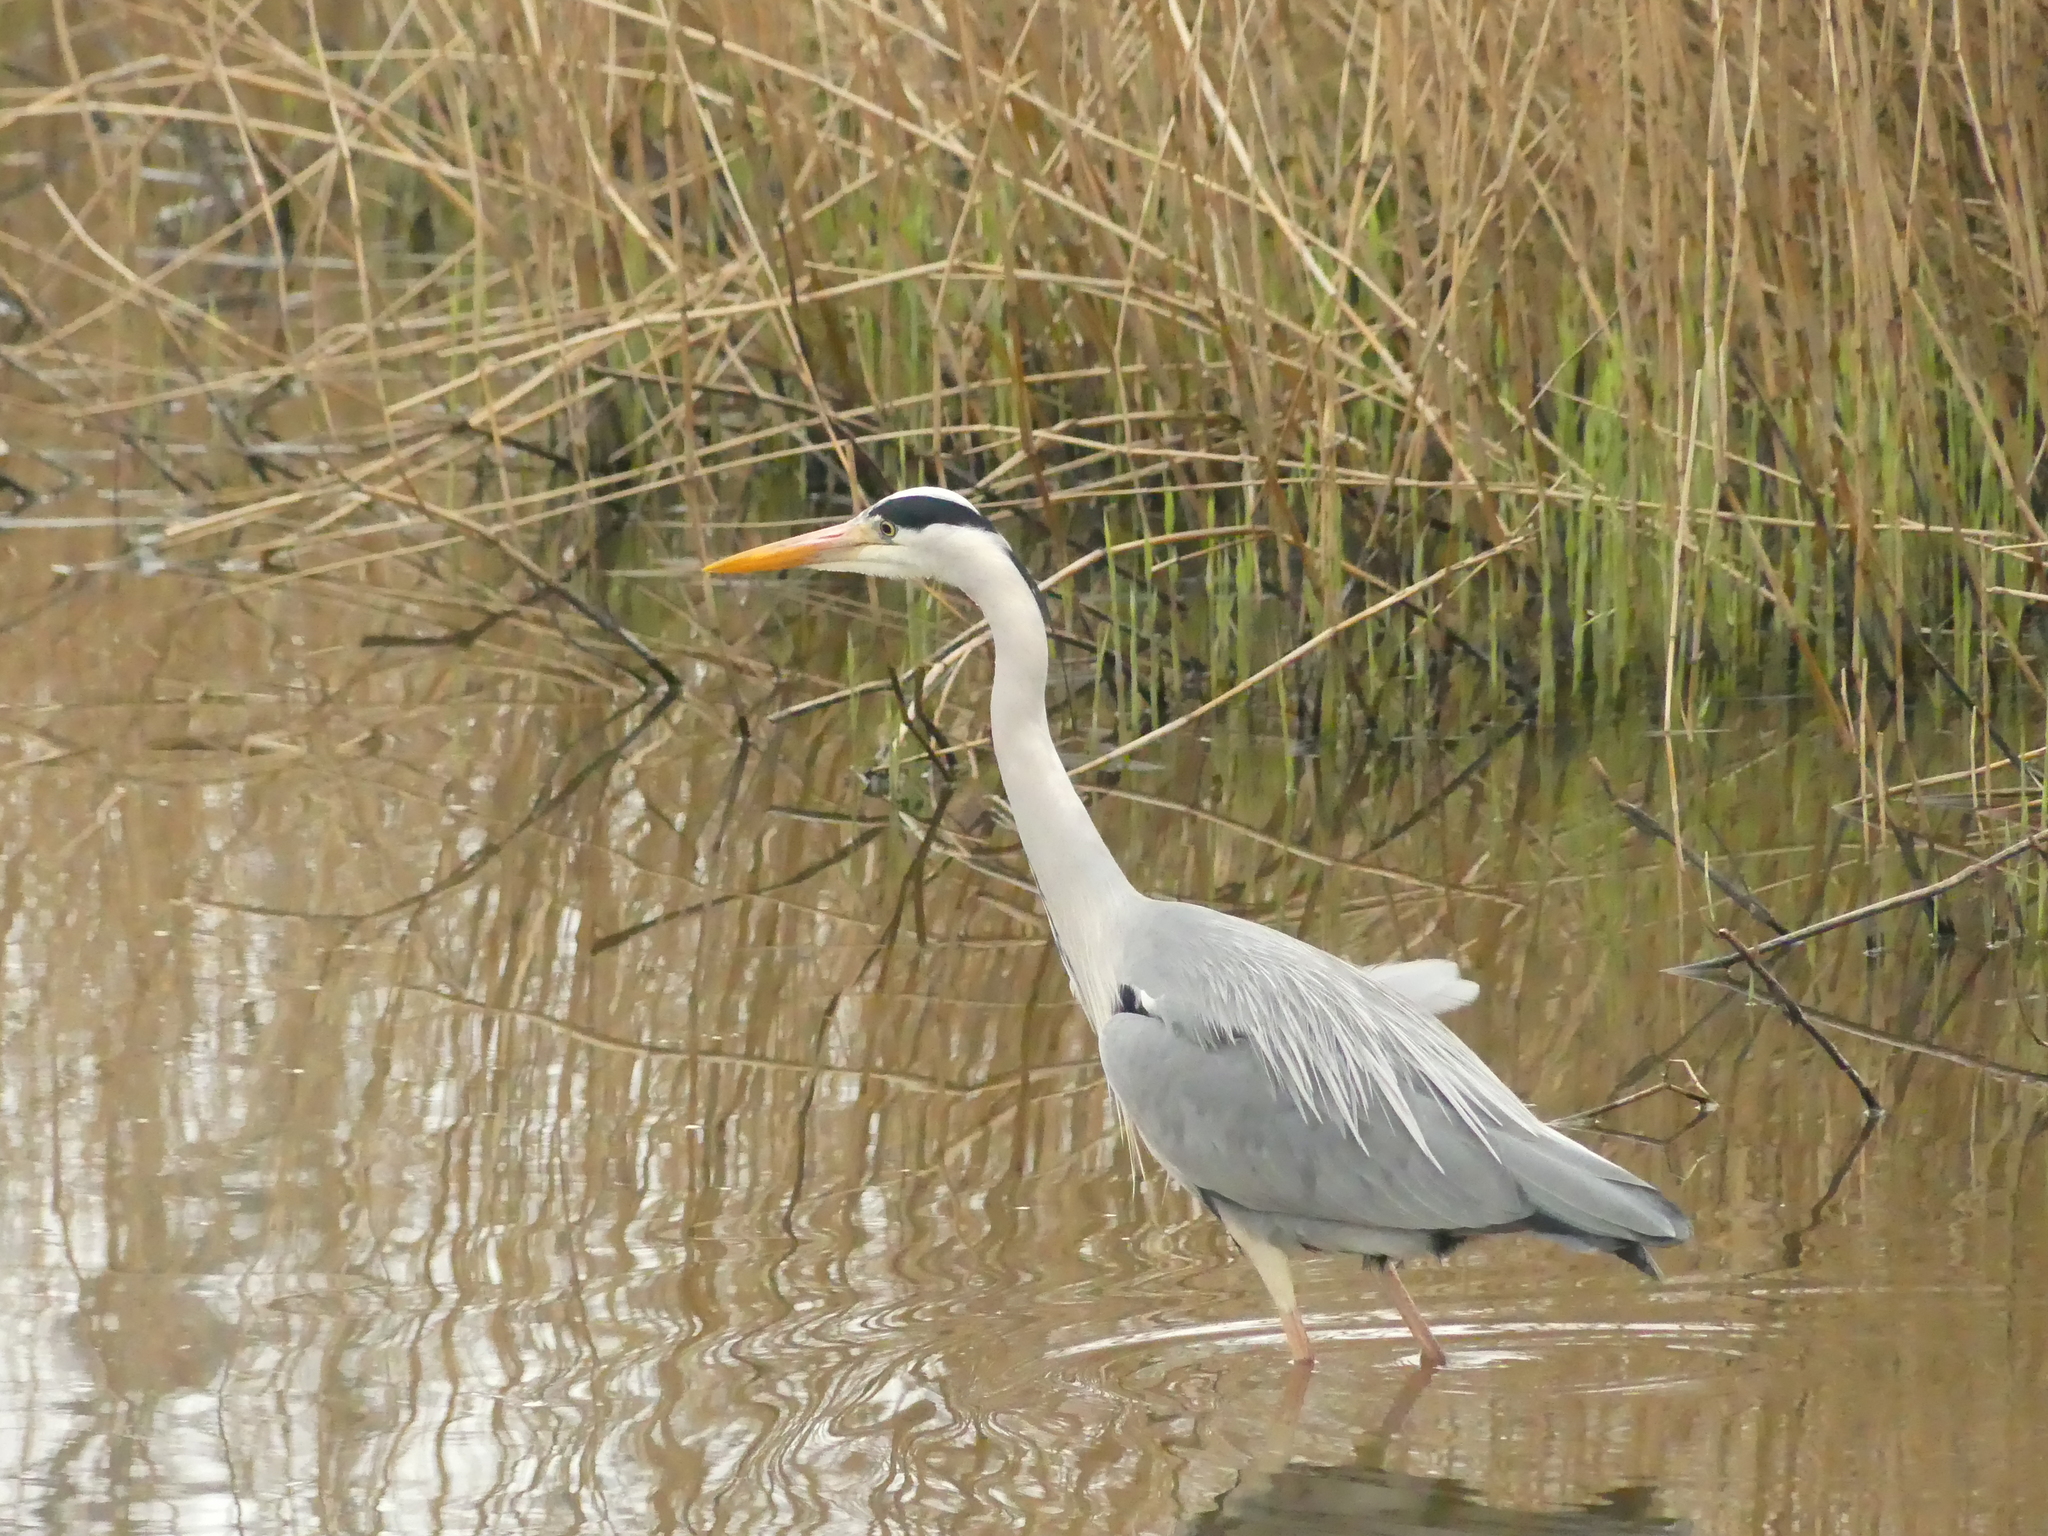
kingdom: Animalia
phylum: Chordata
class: Aves
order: Pelecaniformes
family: Ardeidae
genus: Ardea
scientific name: Ardea cinerea
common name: Grey heron
